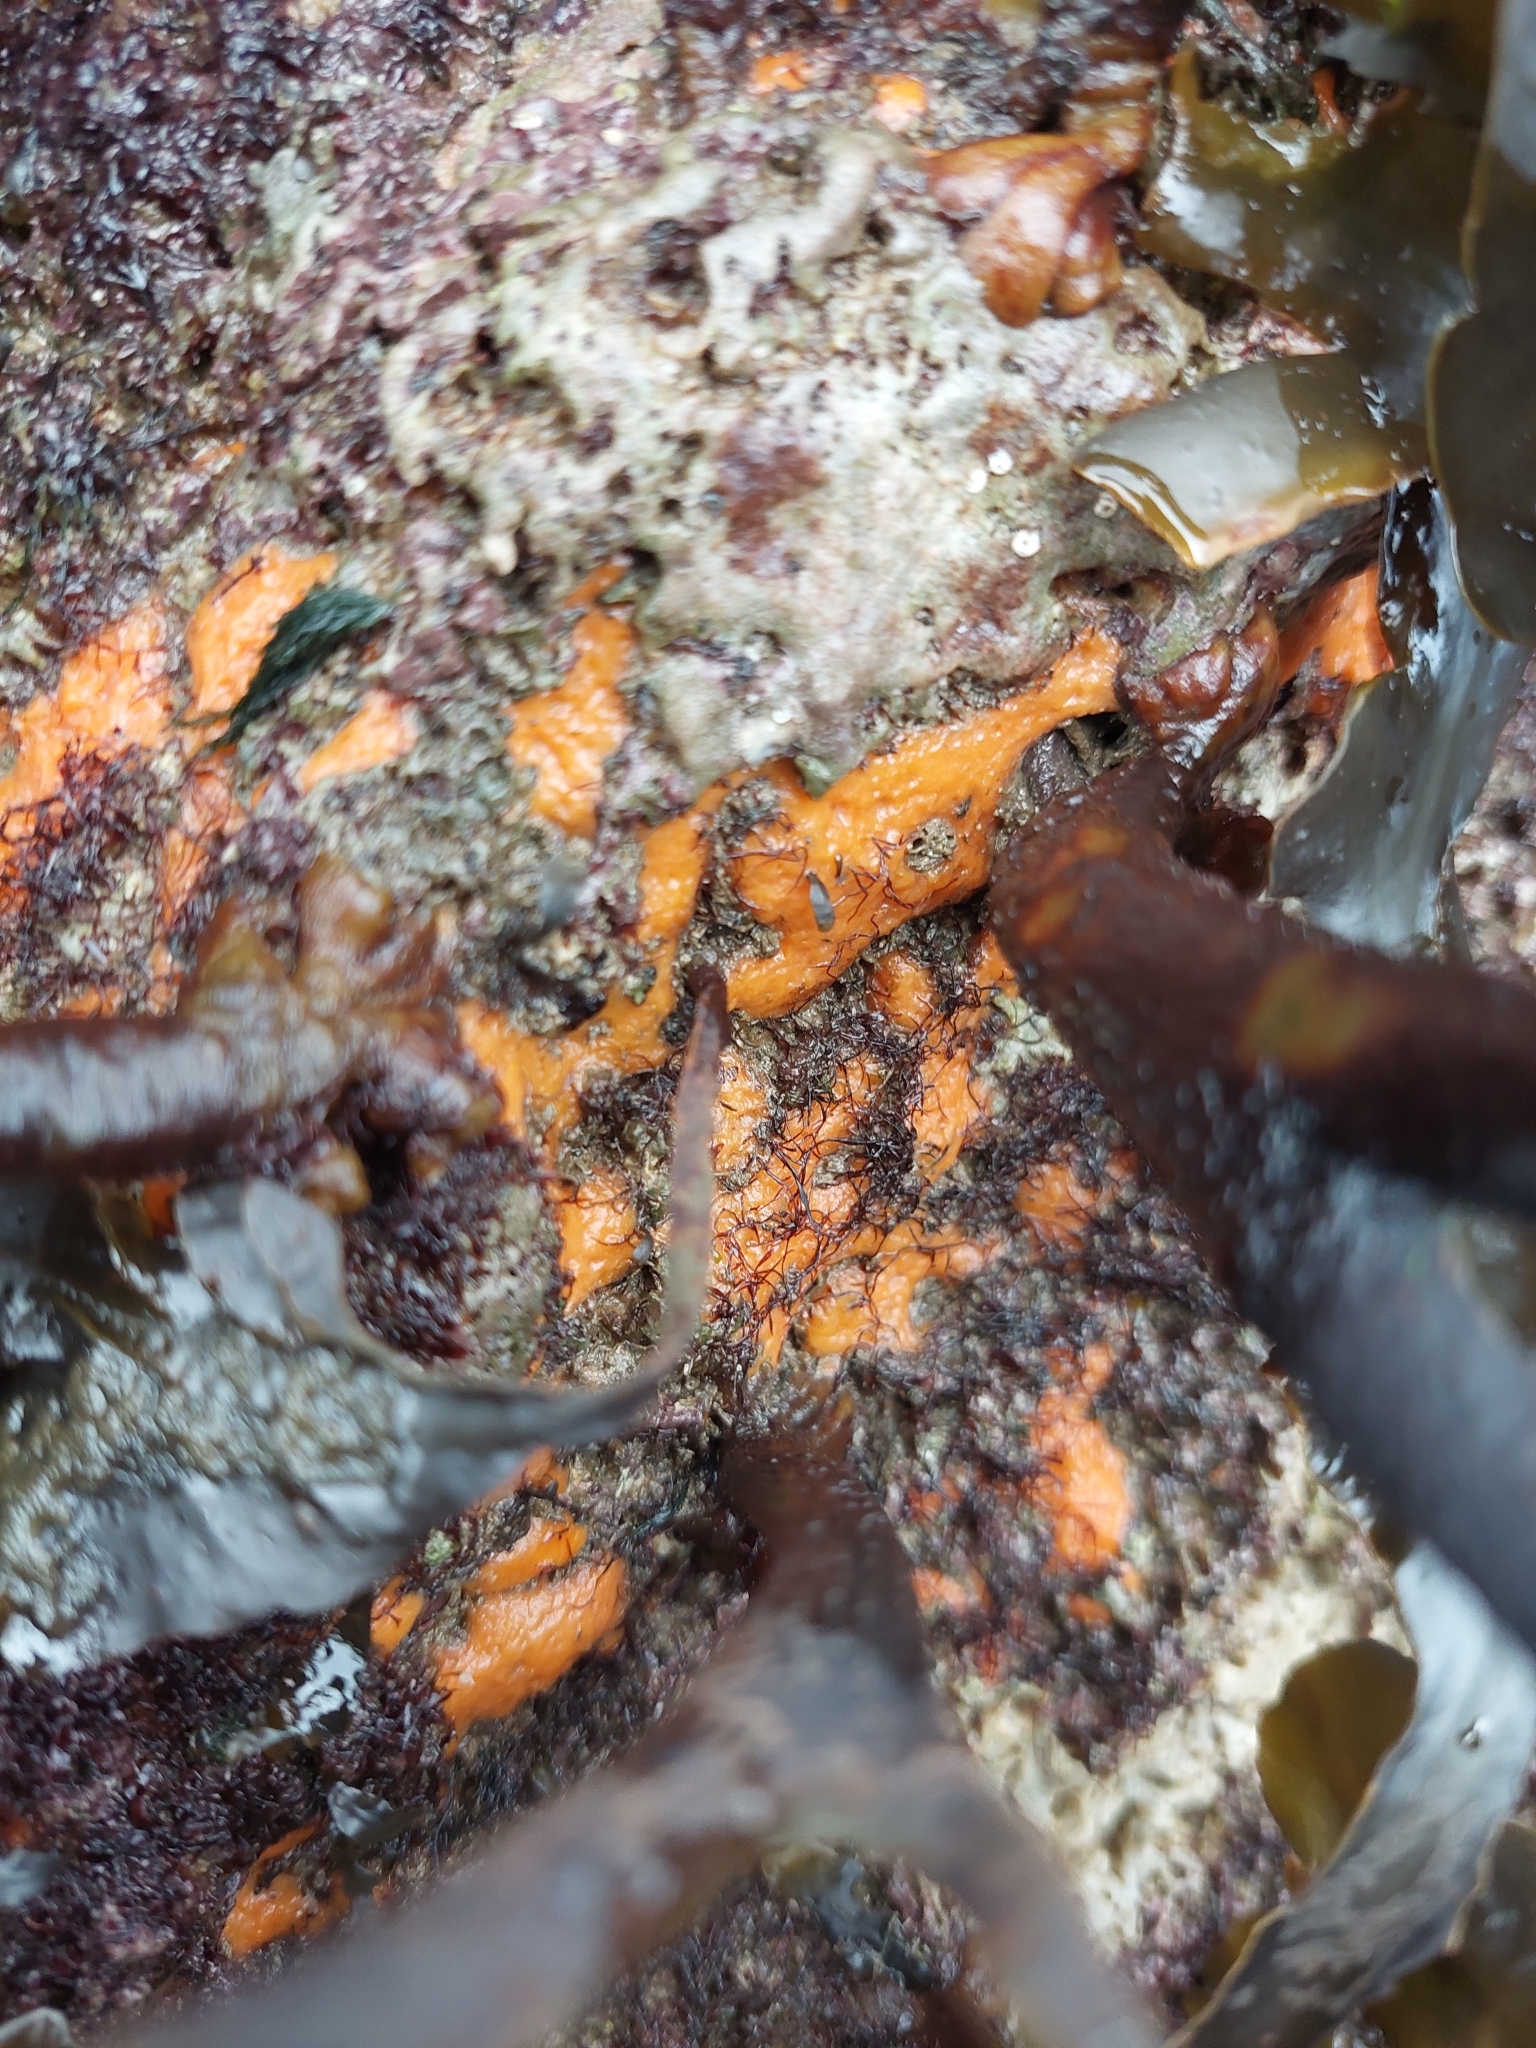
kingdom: Animalia
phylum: Porifera
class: Demospongiae
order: Suberitida
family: Halichondriidae
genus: Hymeniacidon
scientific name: Hymeniacidon perlevis
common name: Crumb-of-bread sponge
